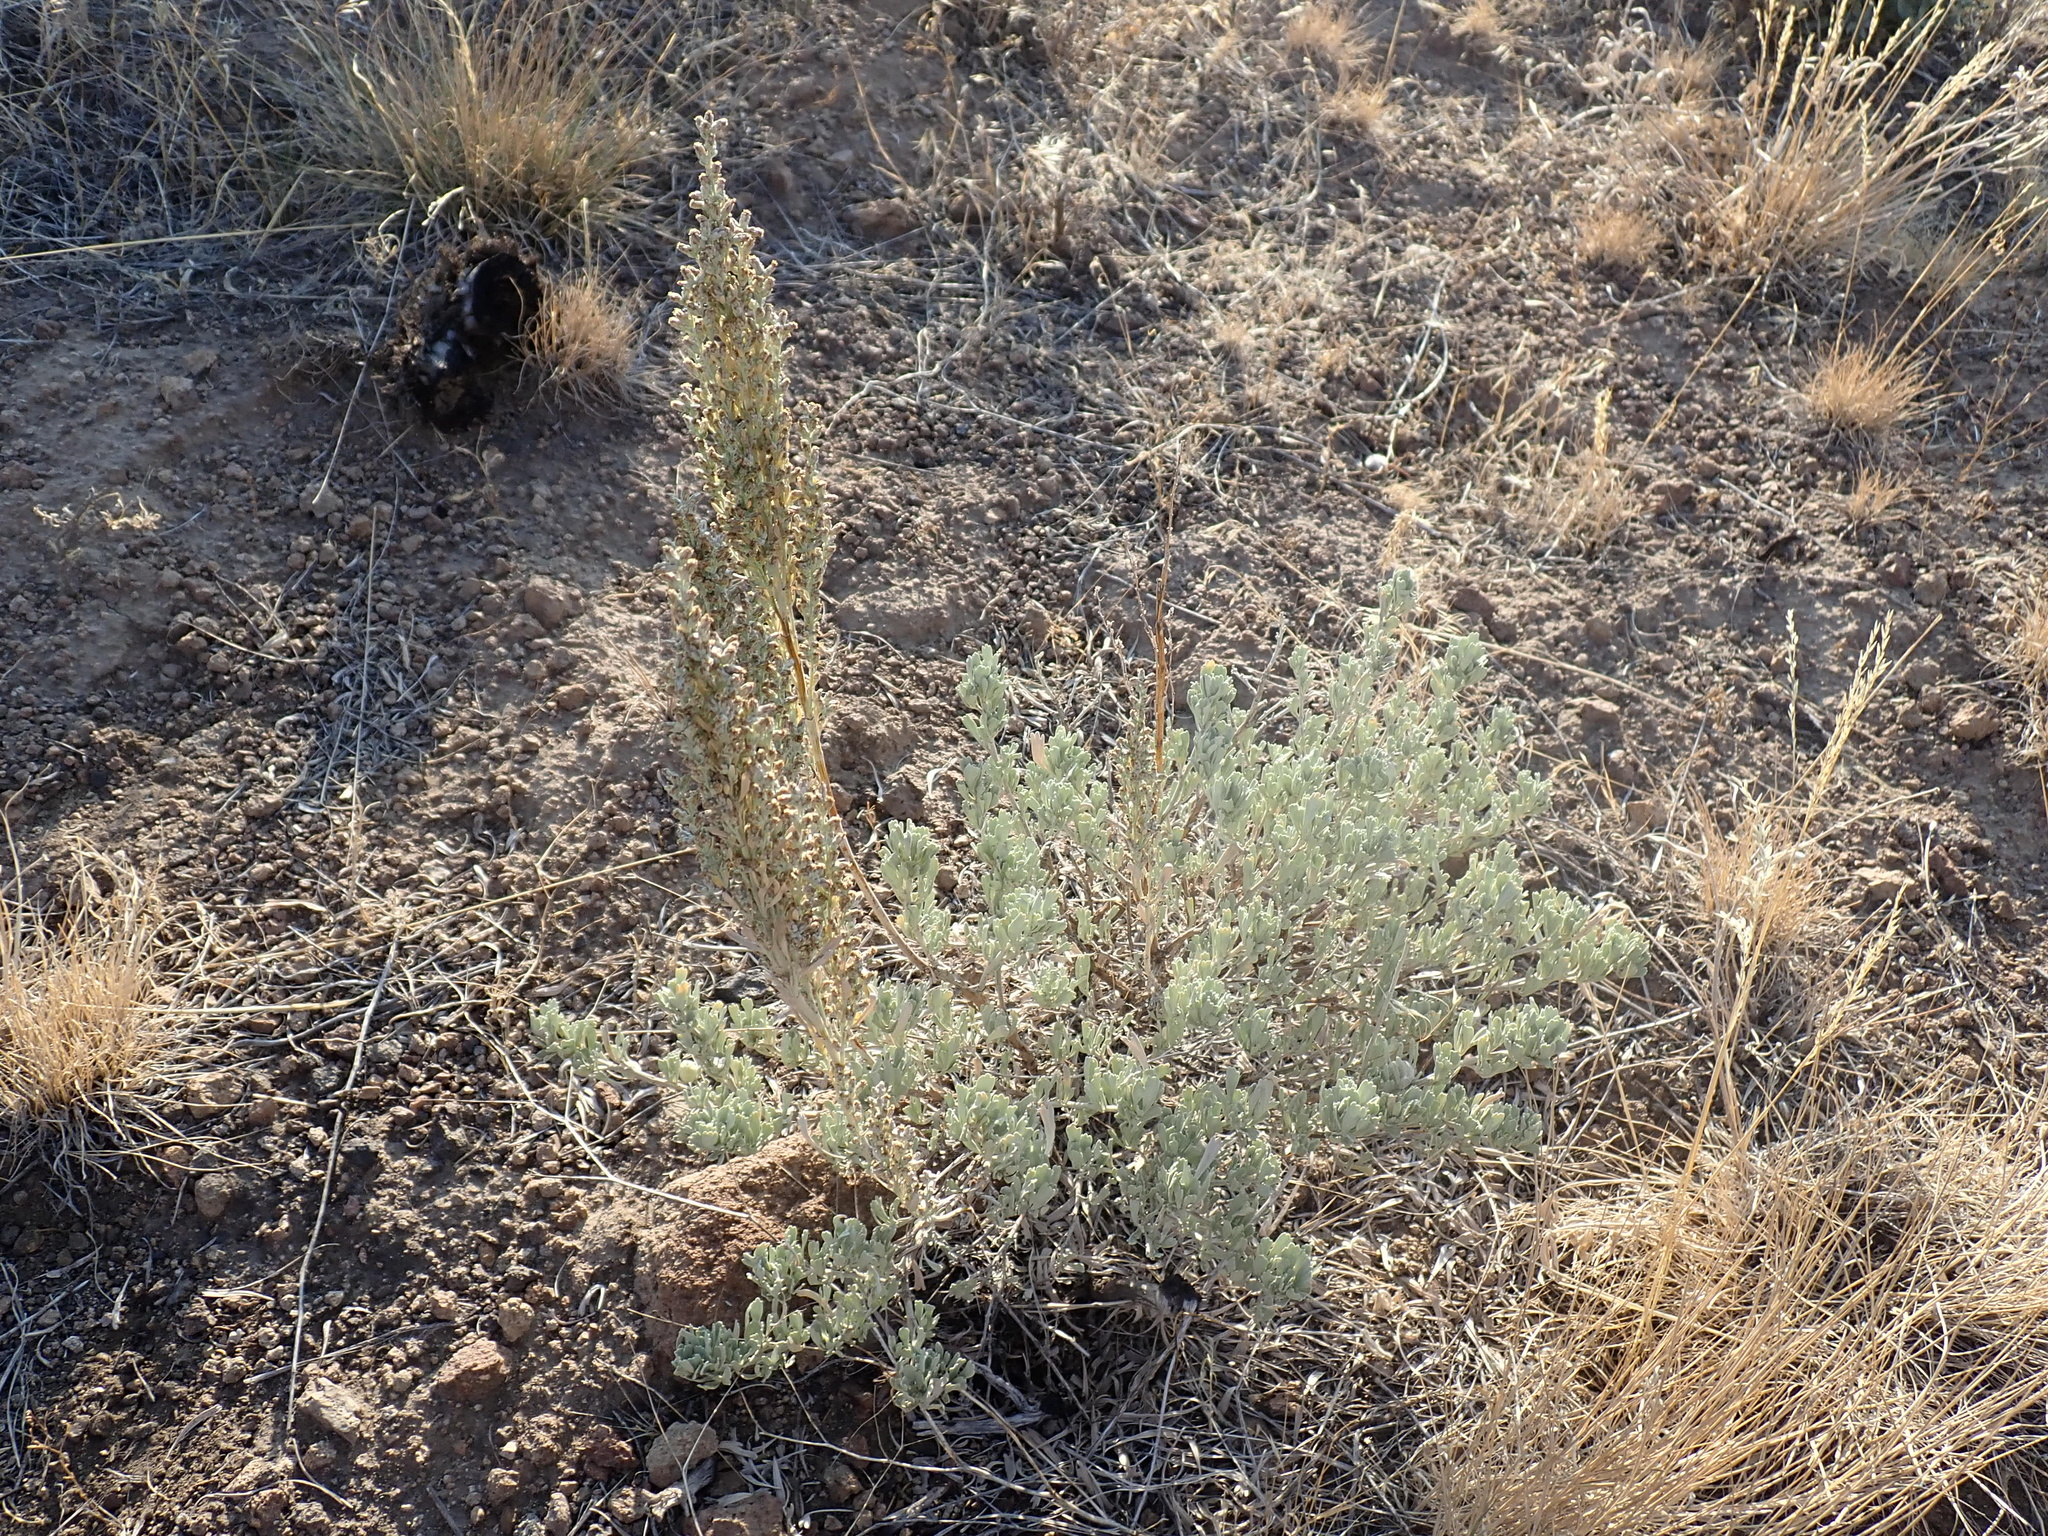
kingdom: Plantae
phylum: Tracheophyta
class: Magnoliopsida
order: Asterales
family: Asteraceae
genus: Artemisia
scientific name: Artemisia tridentata
